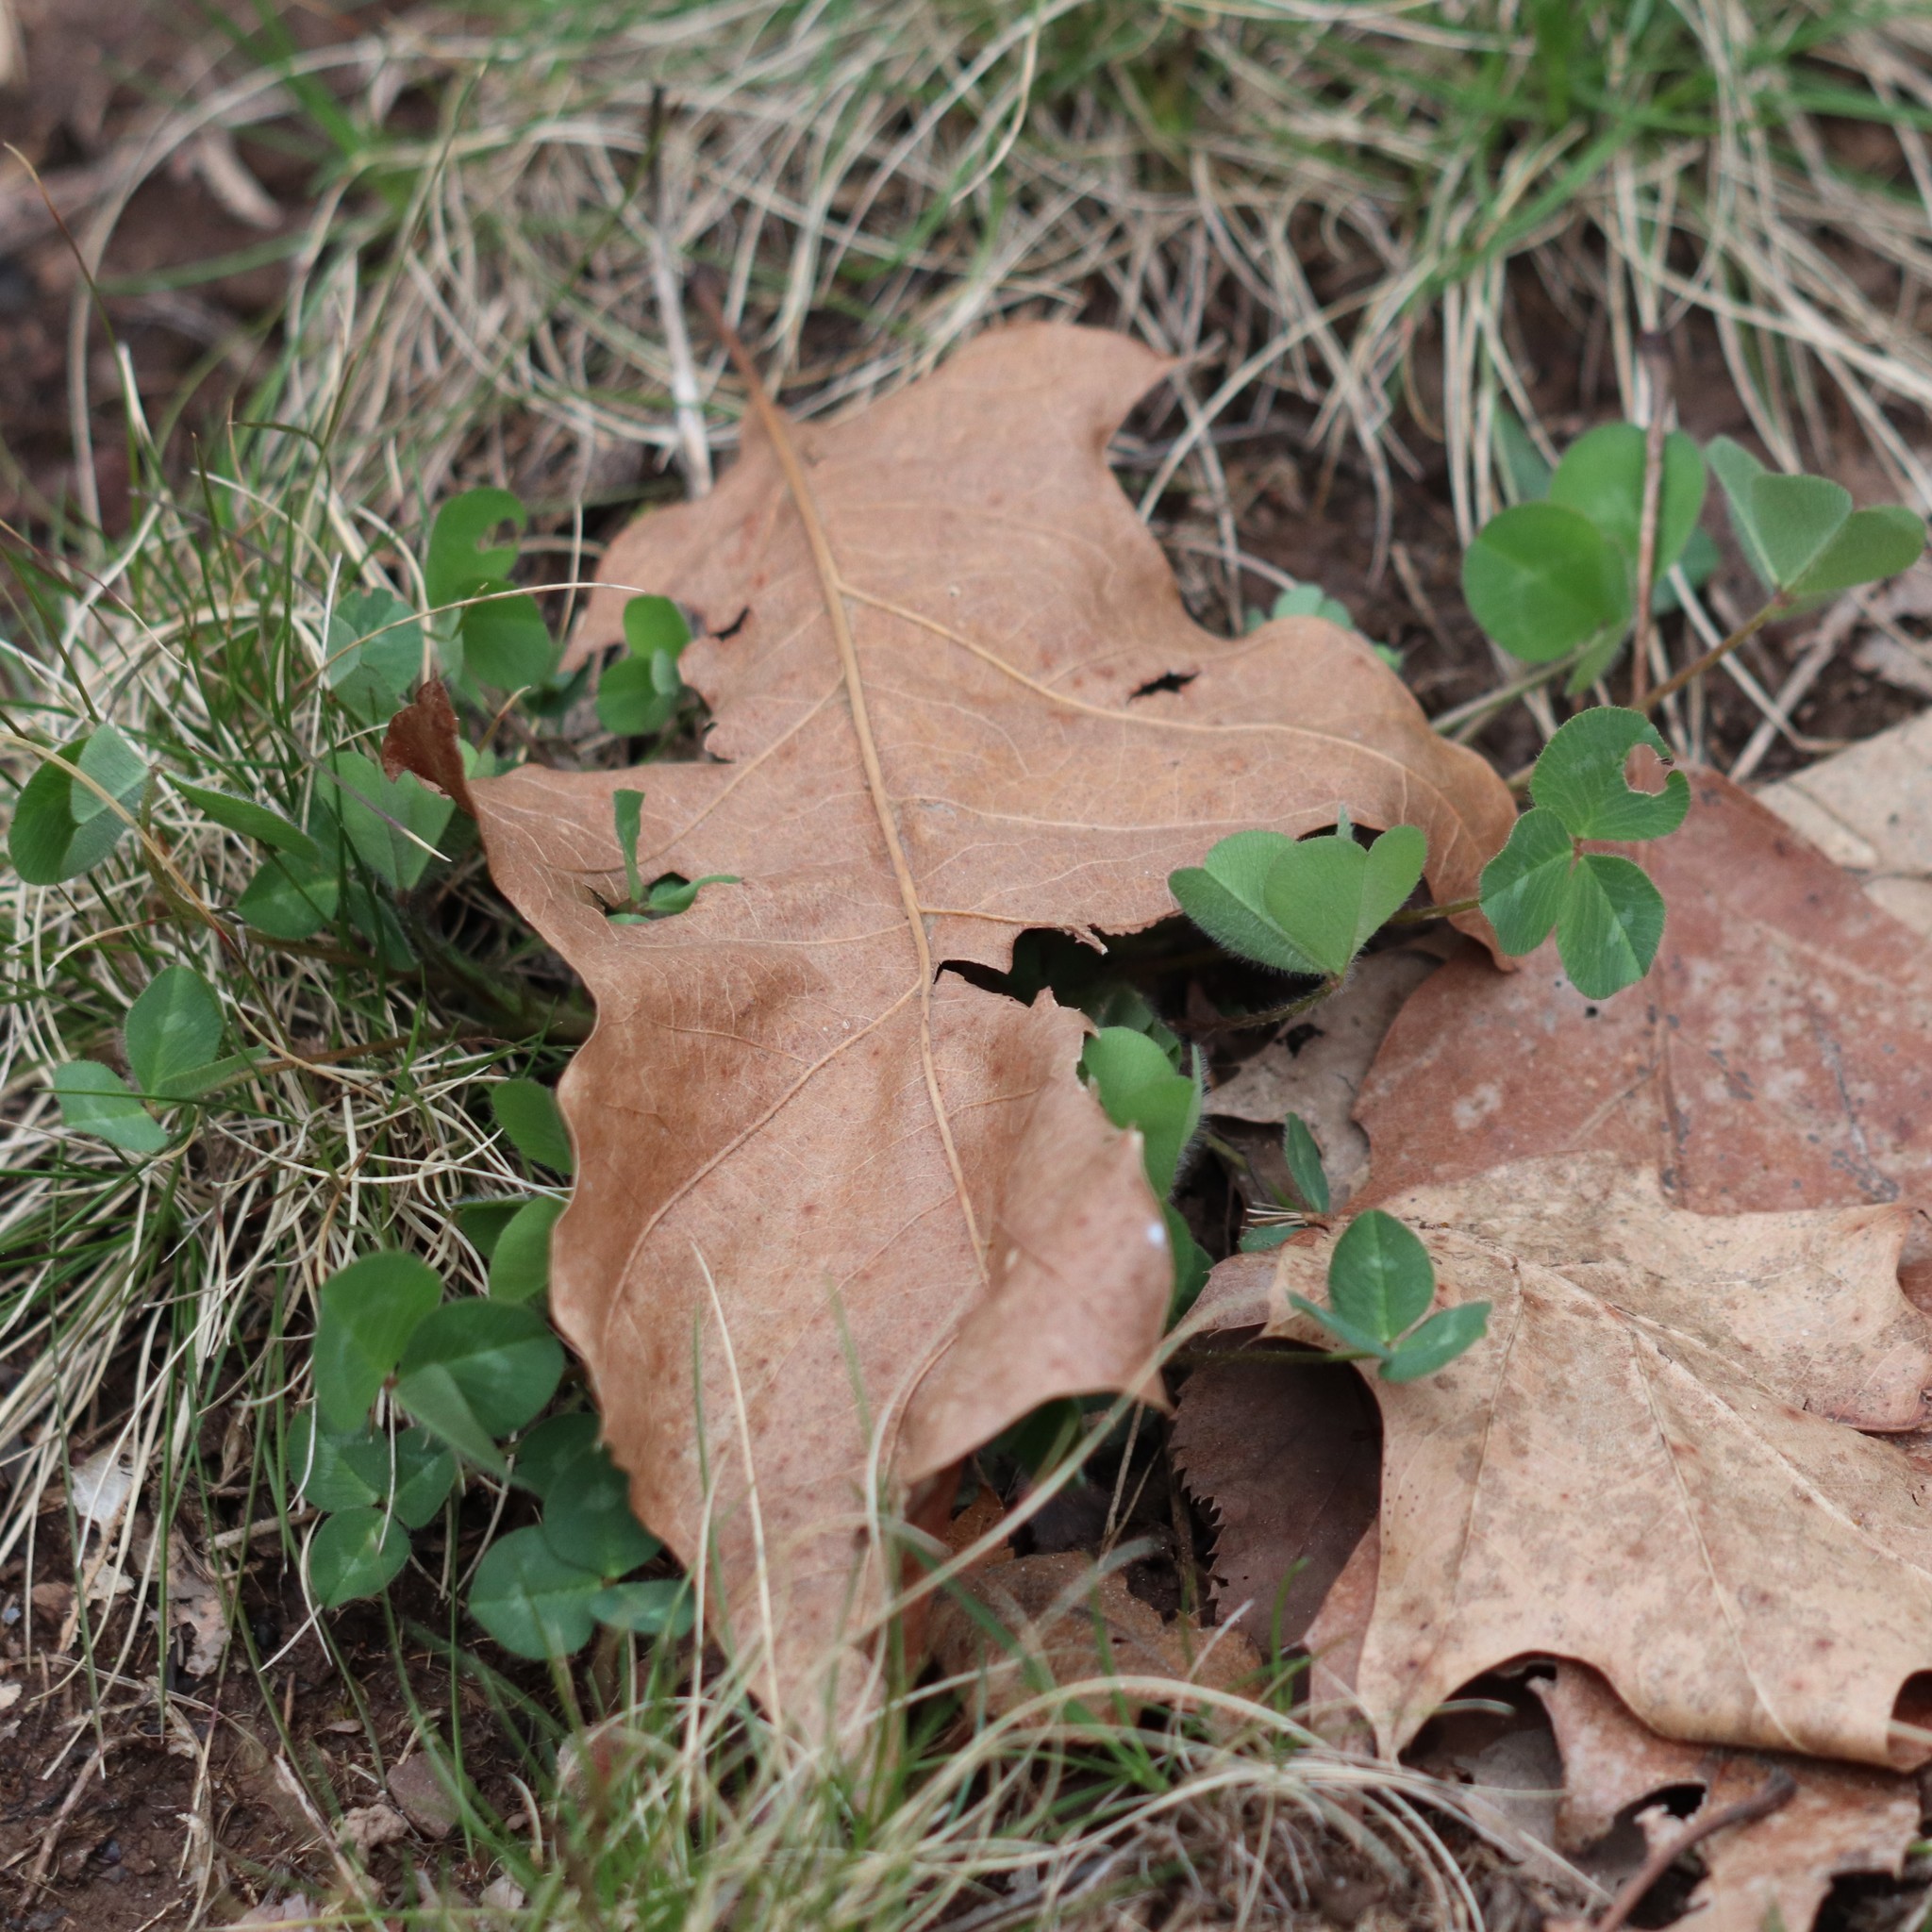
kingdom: Plantae
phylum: Tracheophyta
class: Magnoliopsida
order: Fabales
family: Fabaceae
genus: Trifolium
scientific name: Trifolium pratense
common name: Red clover
